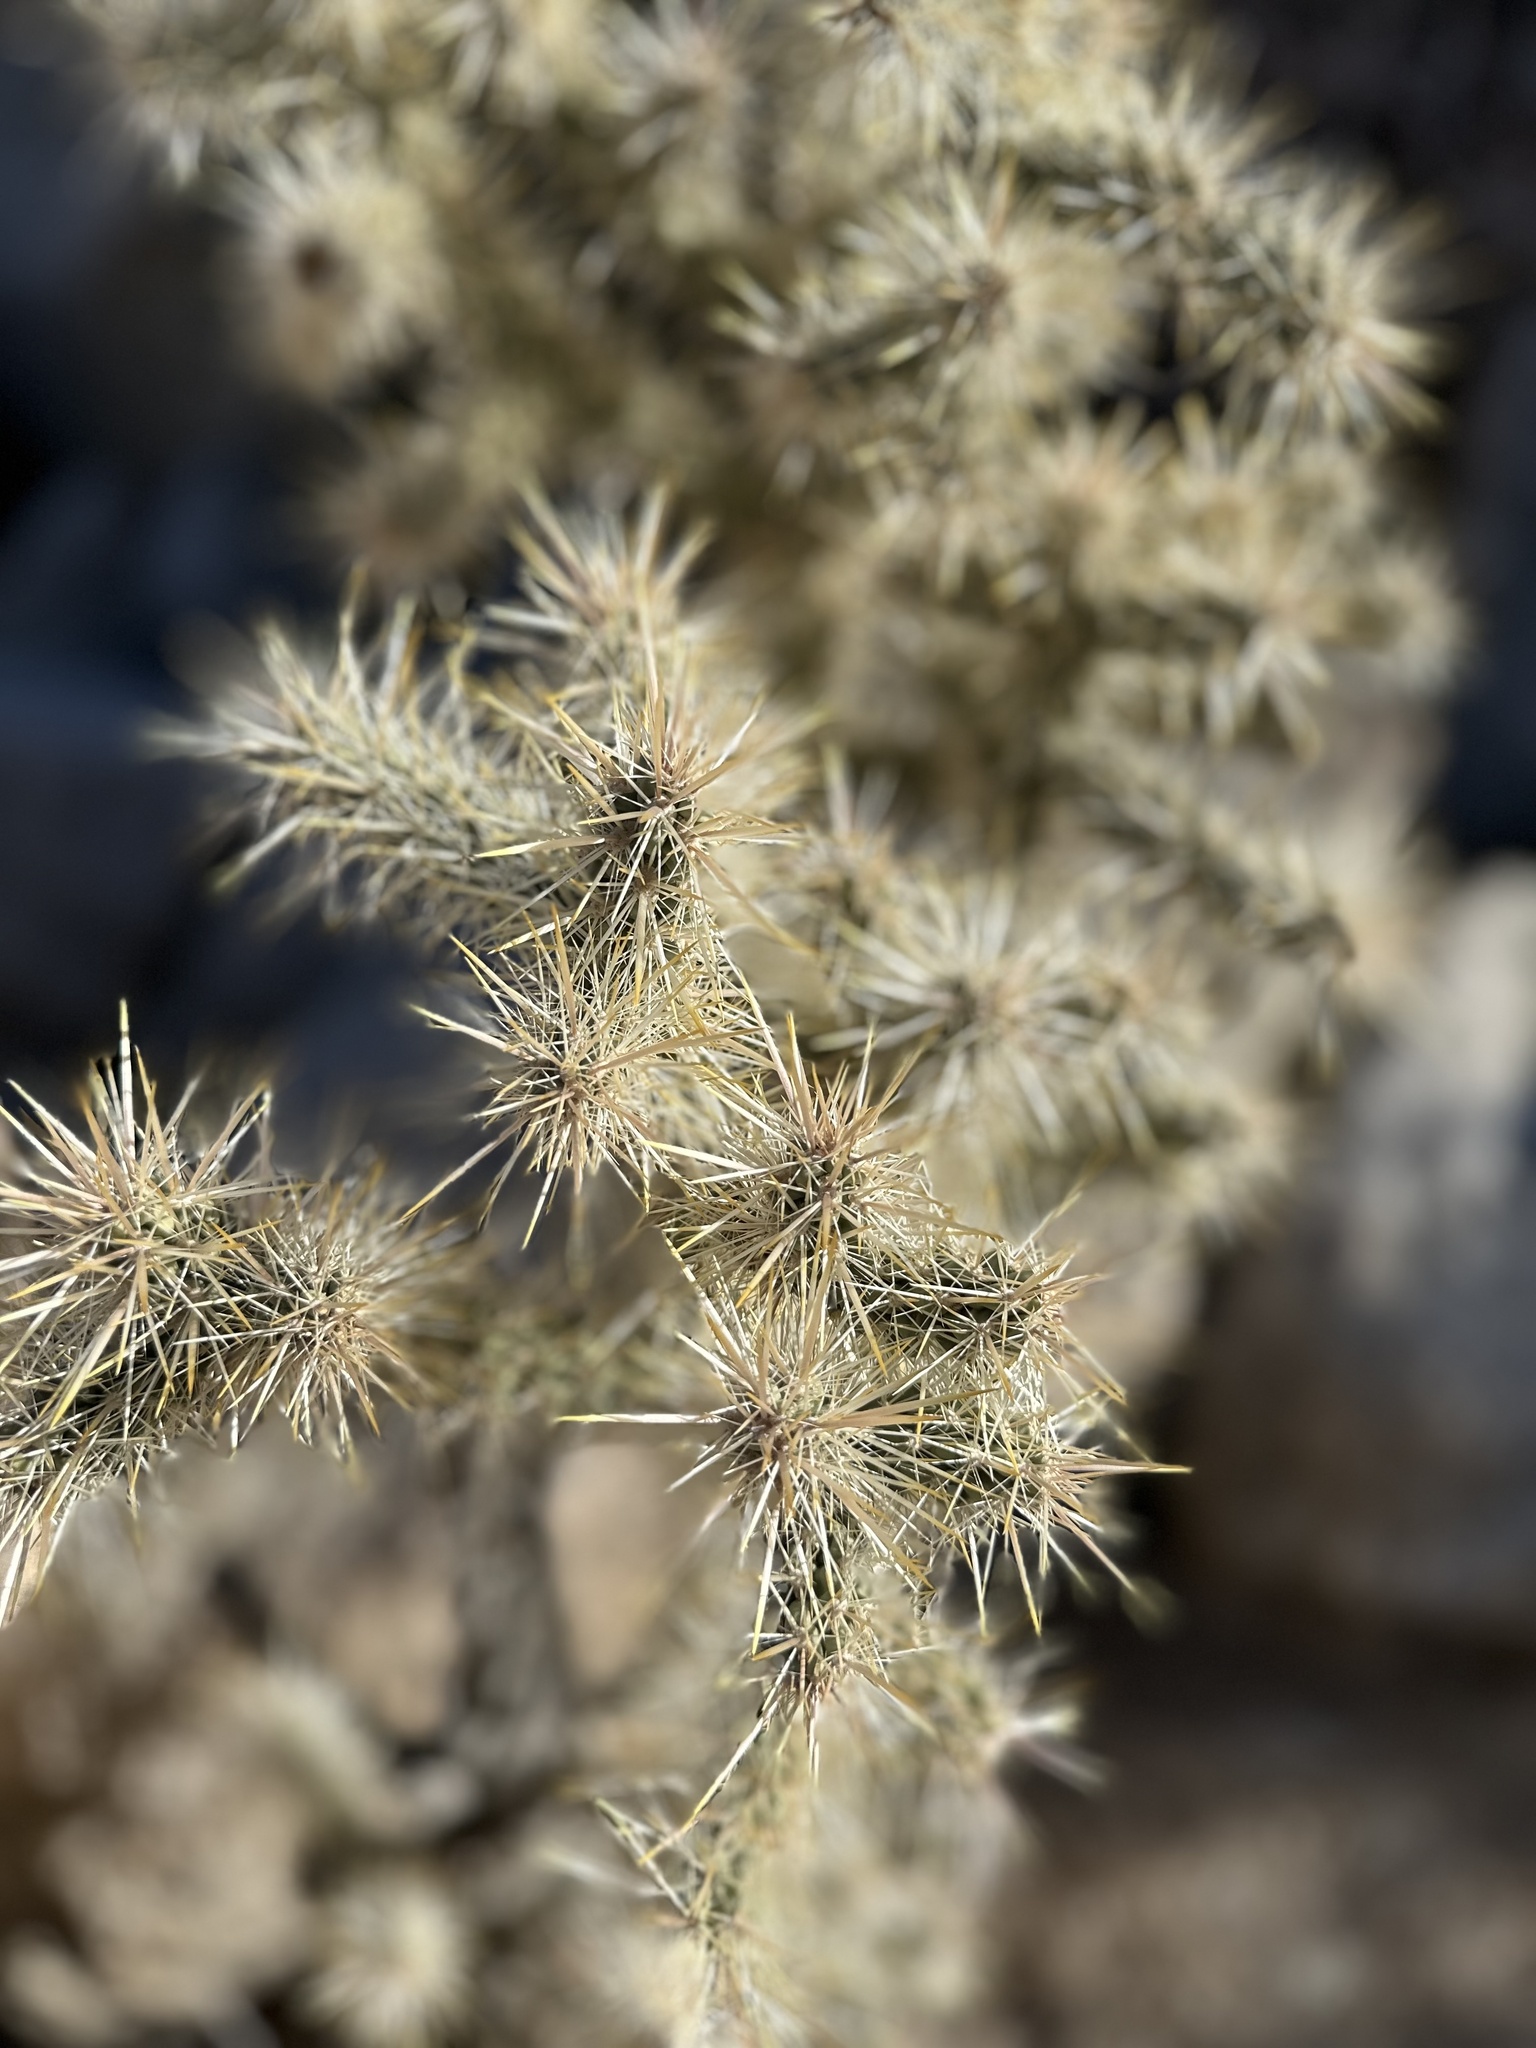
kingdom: Plantae
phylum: Tracheophyta
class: Magnoliopsida
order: Caryophyllales
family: Cactaceae
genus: Cylindropuntia
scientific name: Cylindropuntia echinocarpa
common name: Ground cholla
